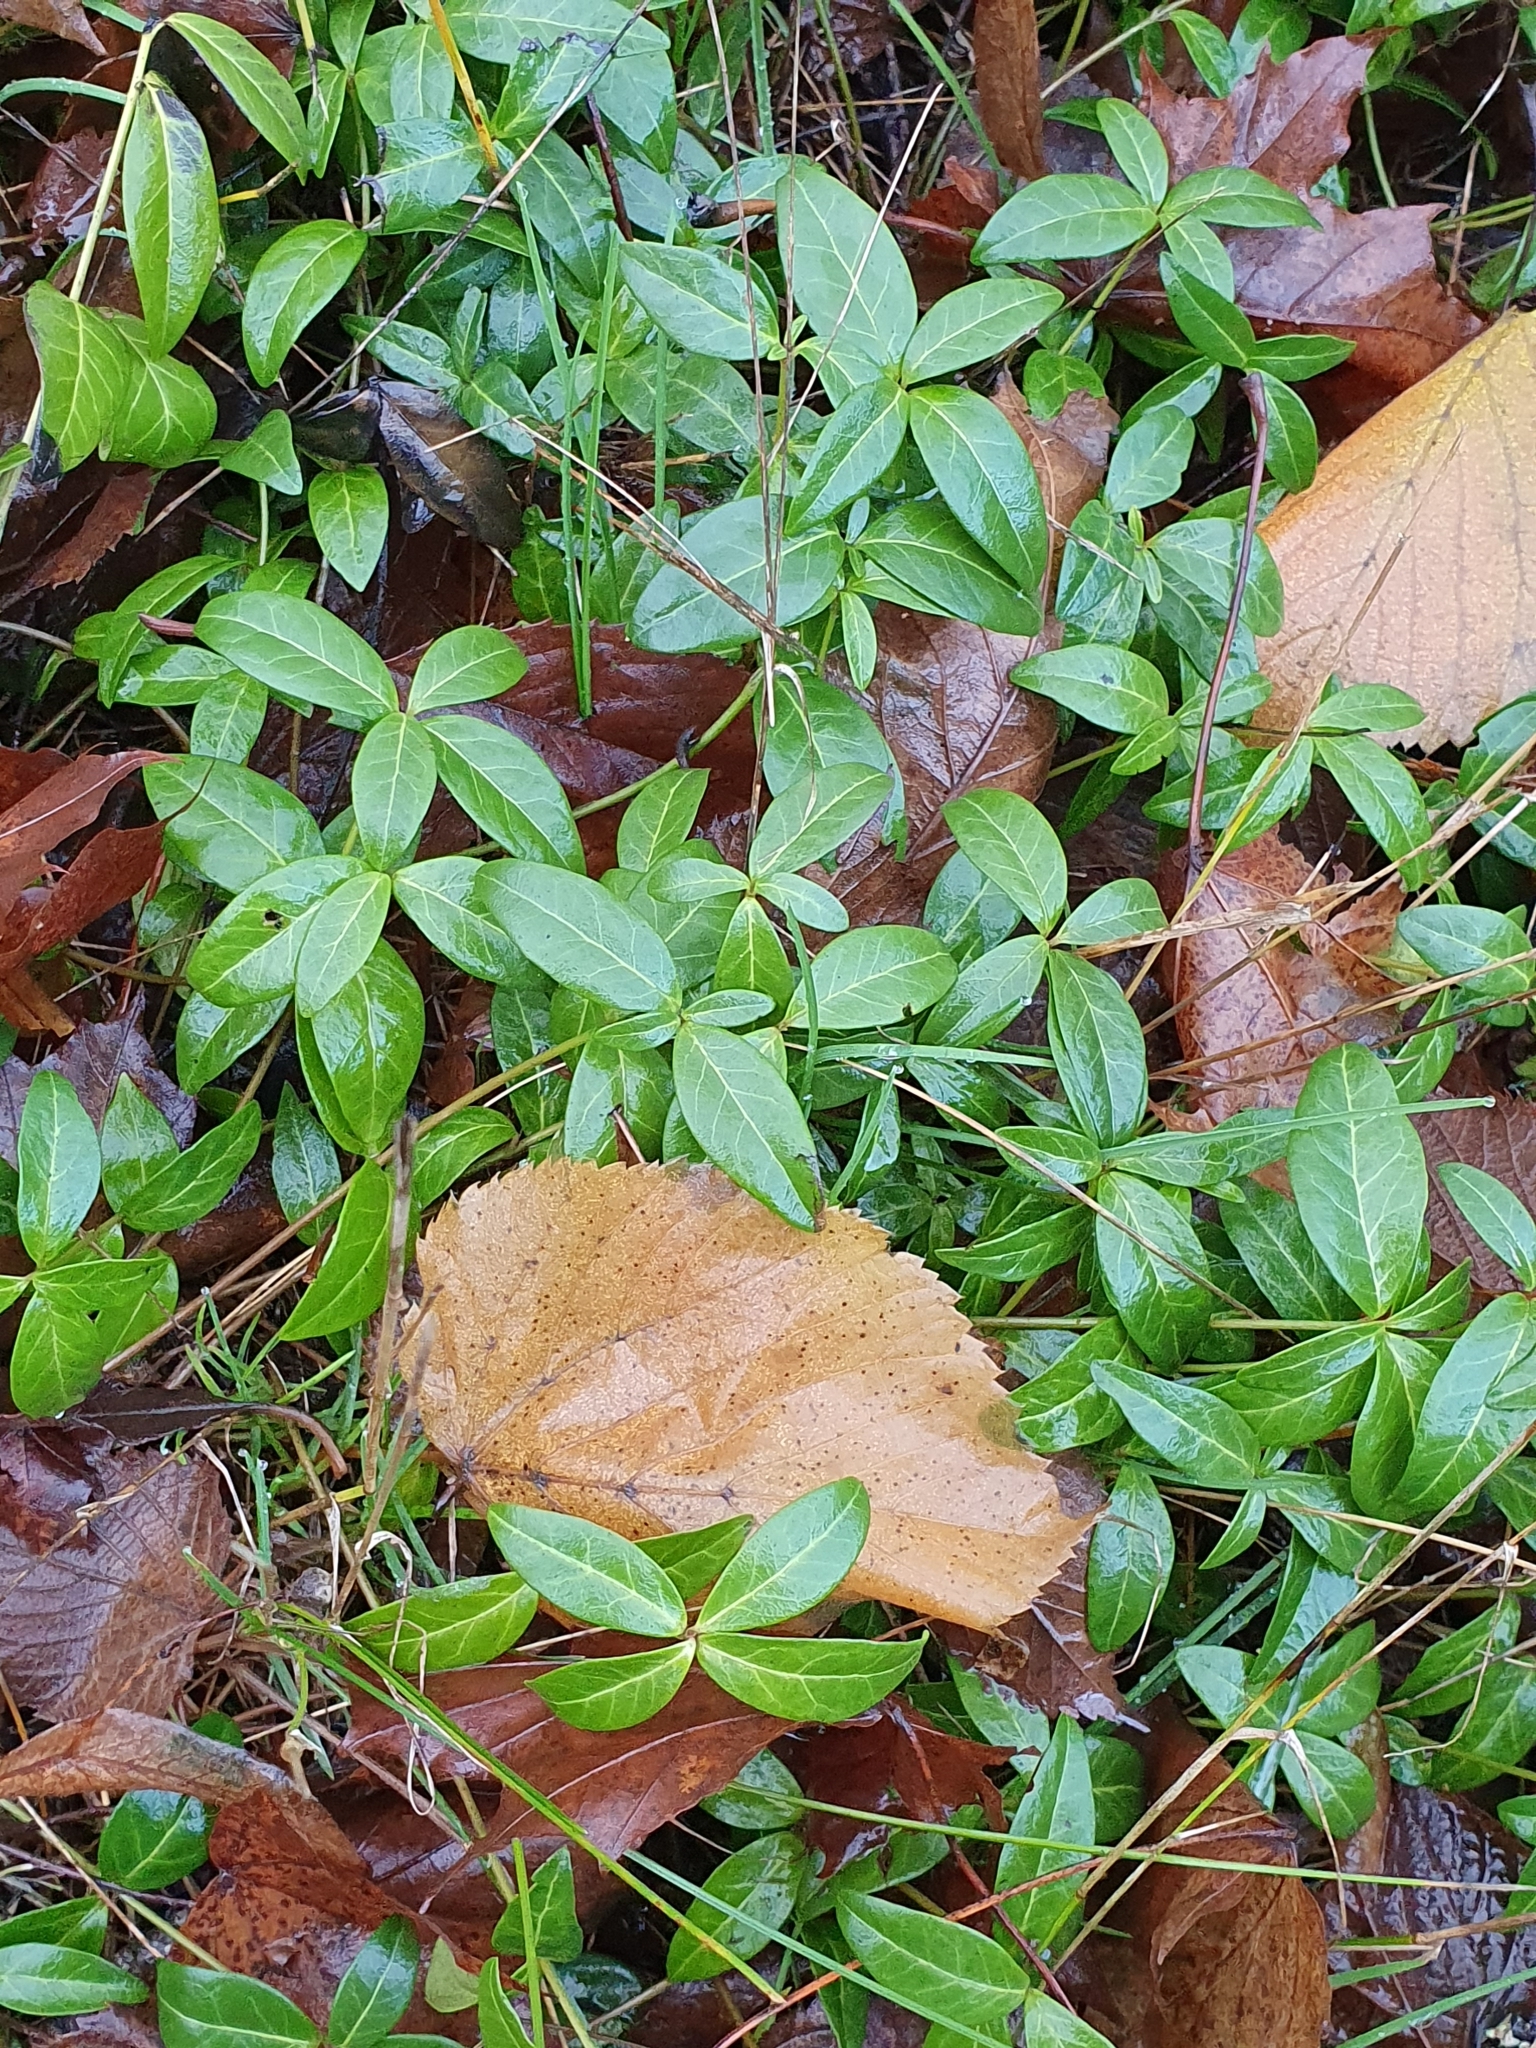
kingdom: Plantae
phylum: Tracheophyta
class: Magnoliopsida
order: Gentianales
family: Apocynaceae
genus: Vinca
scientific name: Vinca minor
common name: Lesser periwinkle
